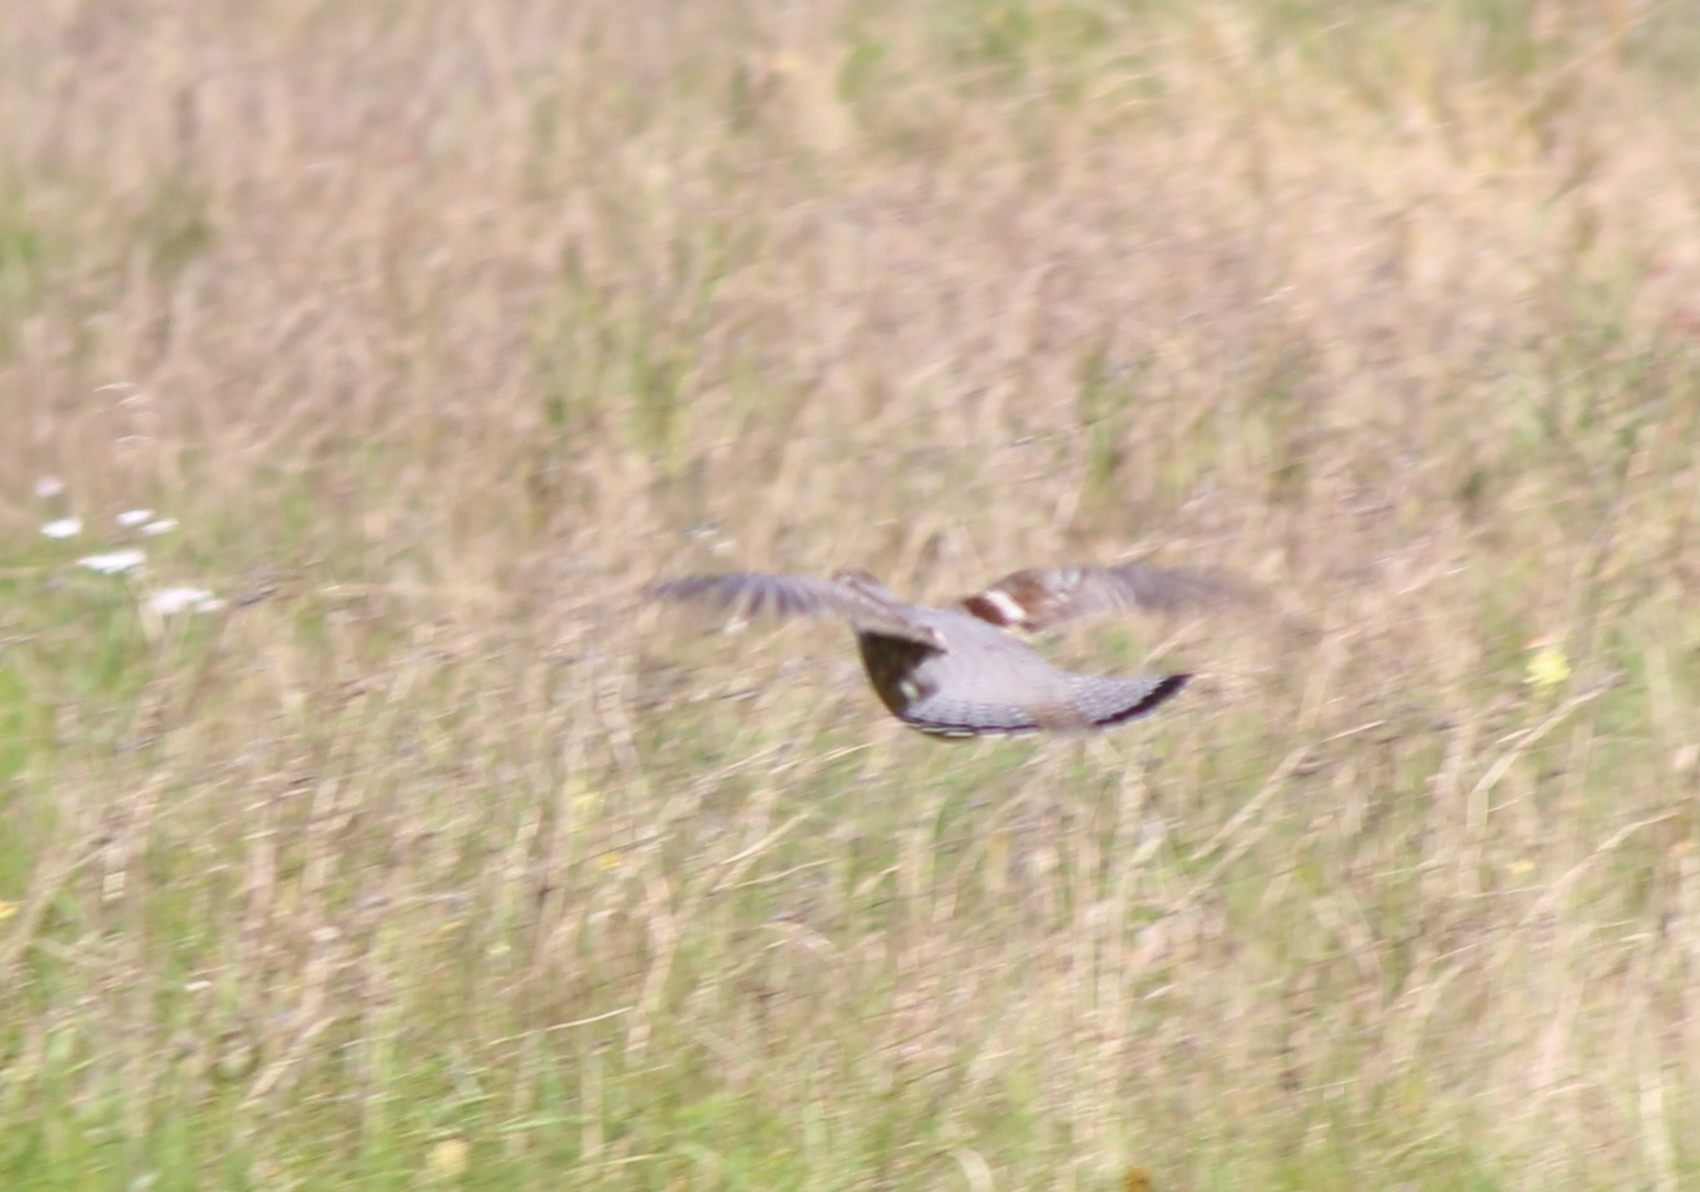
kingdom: Animalia
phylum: Chordata
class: Aves
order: Galliformes
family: Phasianidae
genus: Tetrastes
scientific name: Tetrastes bonasia
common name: Hazel grouse
